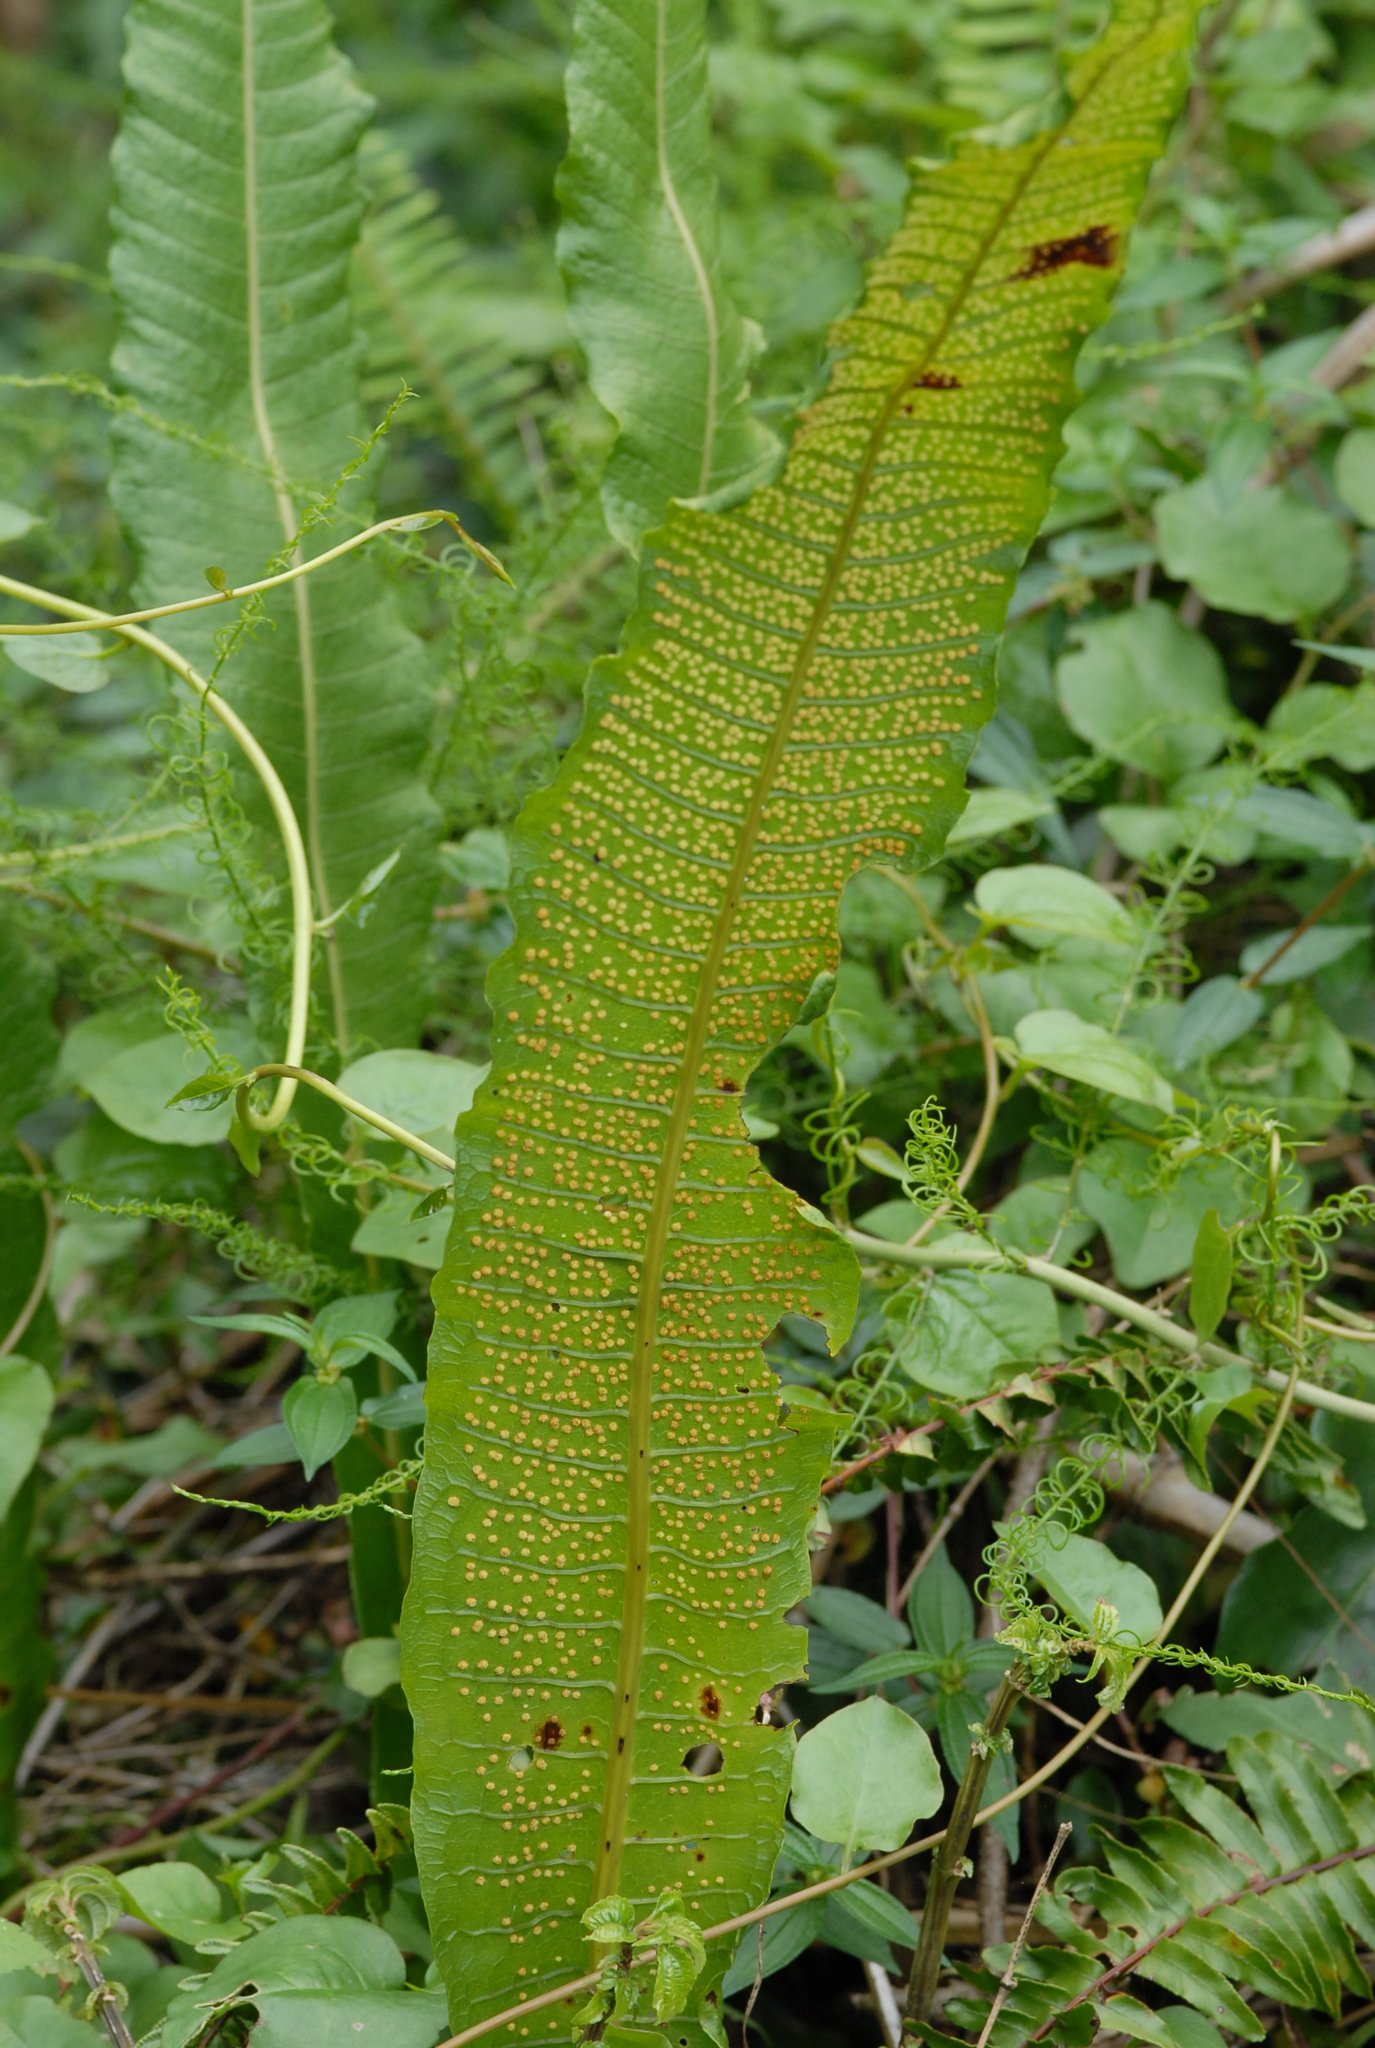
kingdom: Plantae
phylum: Tracheophyta
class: Polypodiopsida
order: Polypodiales
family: Polypodiaceae
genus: Bosmania
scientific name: Bosmania membranacea
